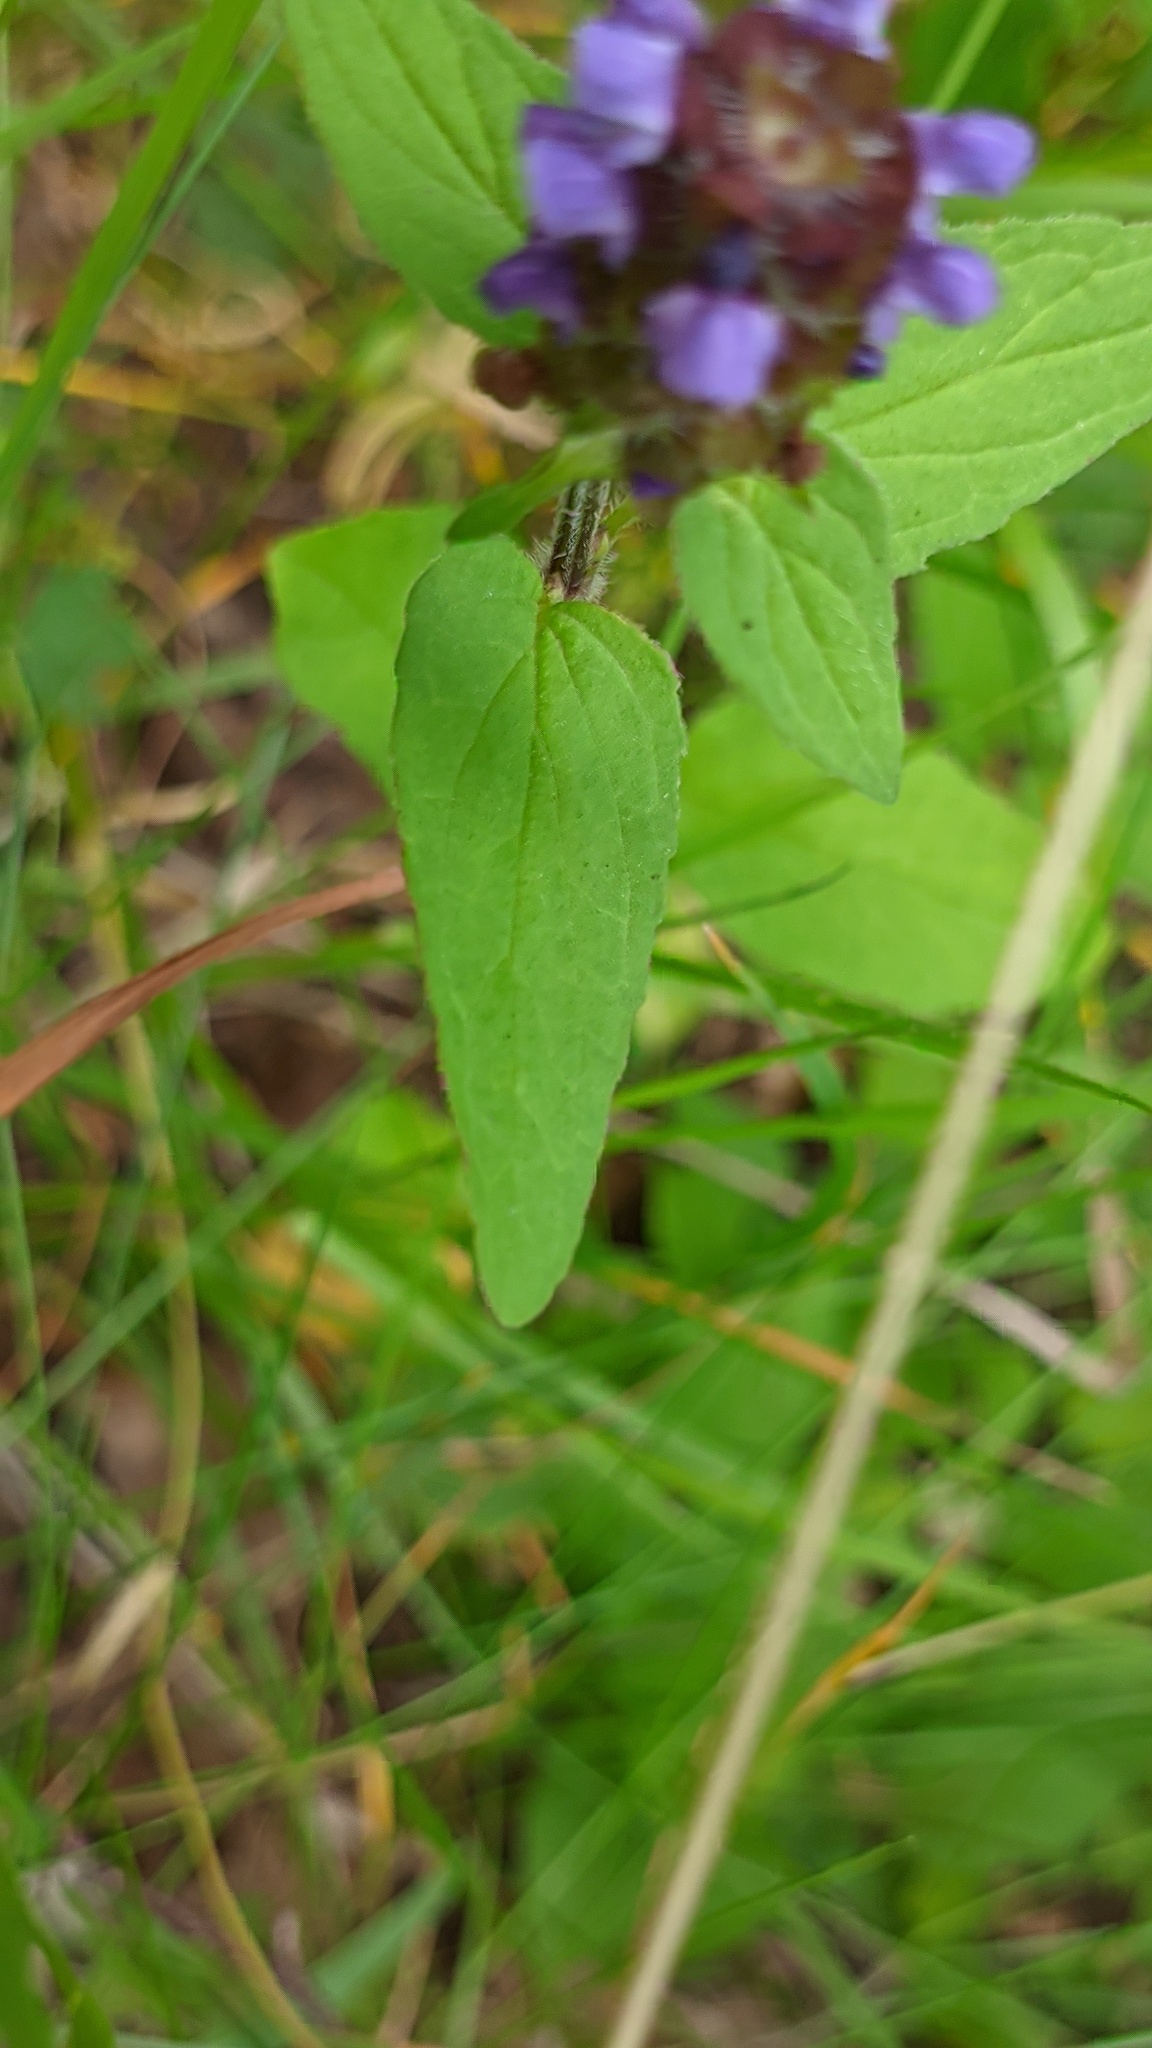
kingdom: Plantae
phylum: Tracheophyta
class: Magnoliopsida
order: Lamiales
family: Lamiaceae
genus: Prunella
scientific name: Prunella vulgaris
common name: Heal-all
